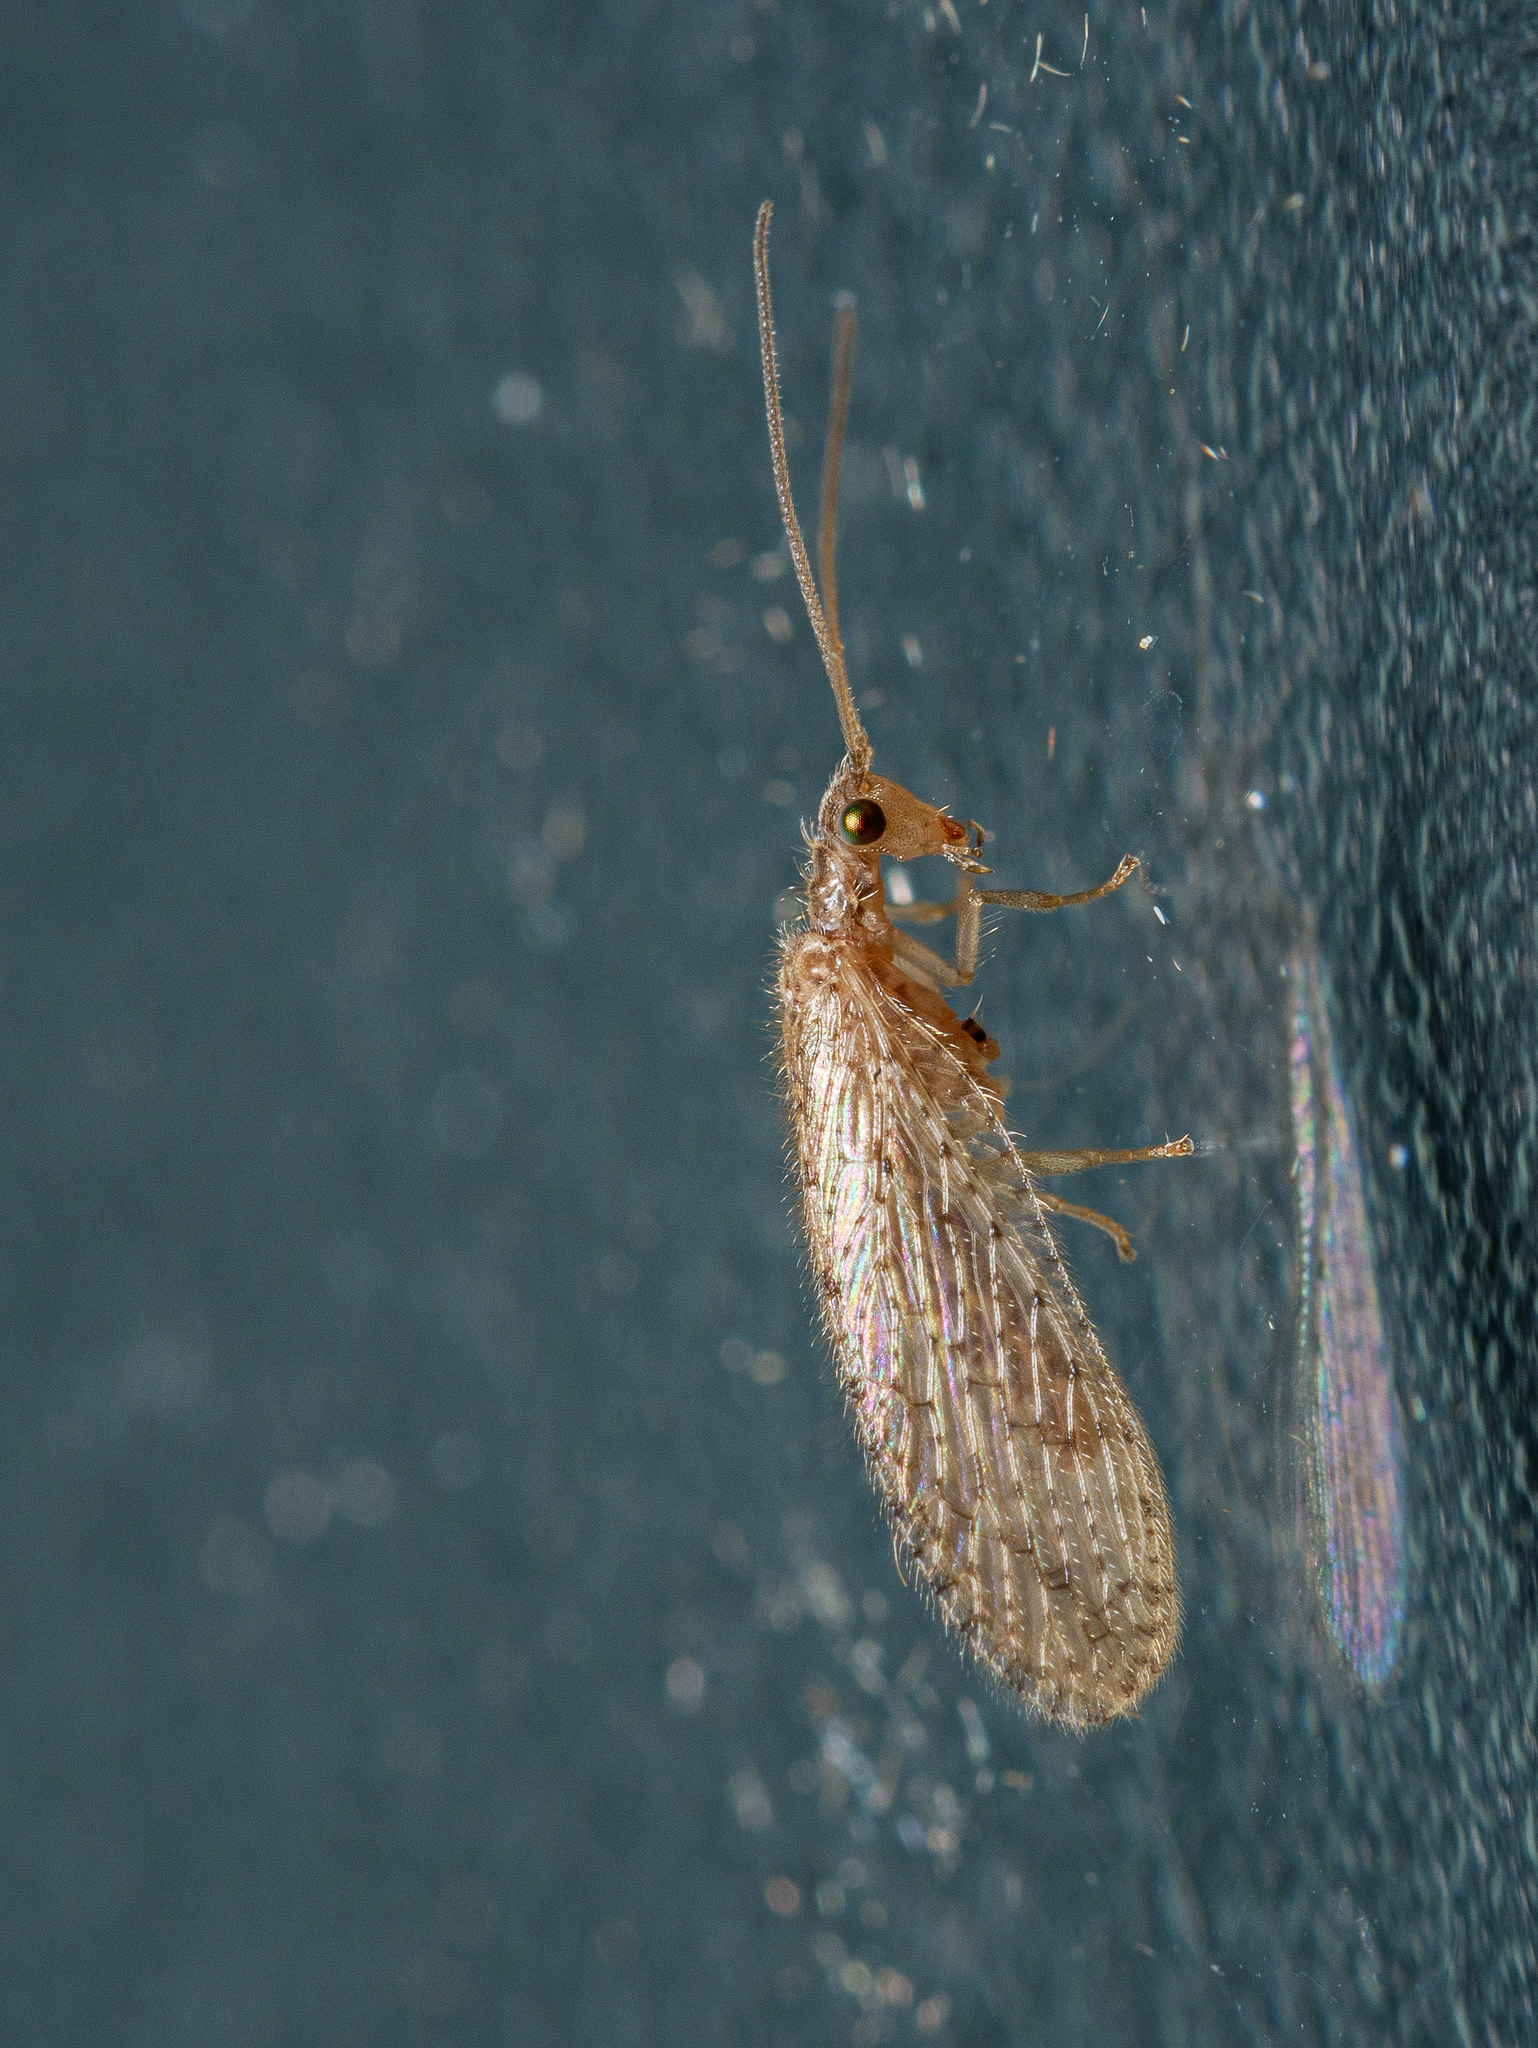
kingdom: Animalia
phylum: Arthropoda
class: Insecta
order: Neuroptera
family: Hemerobiidae
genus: Micromus
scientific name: Micromus tasmaniae
